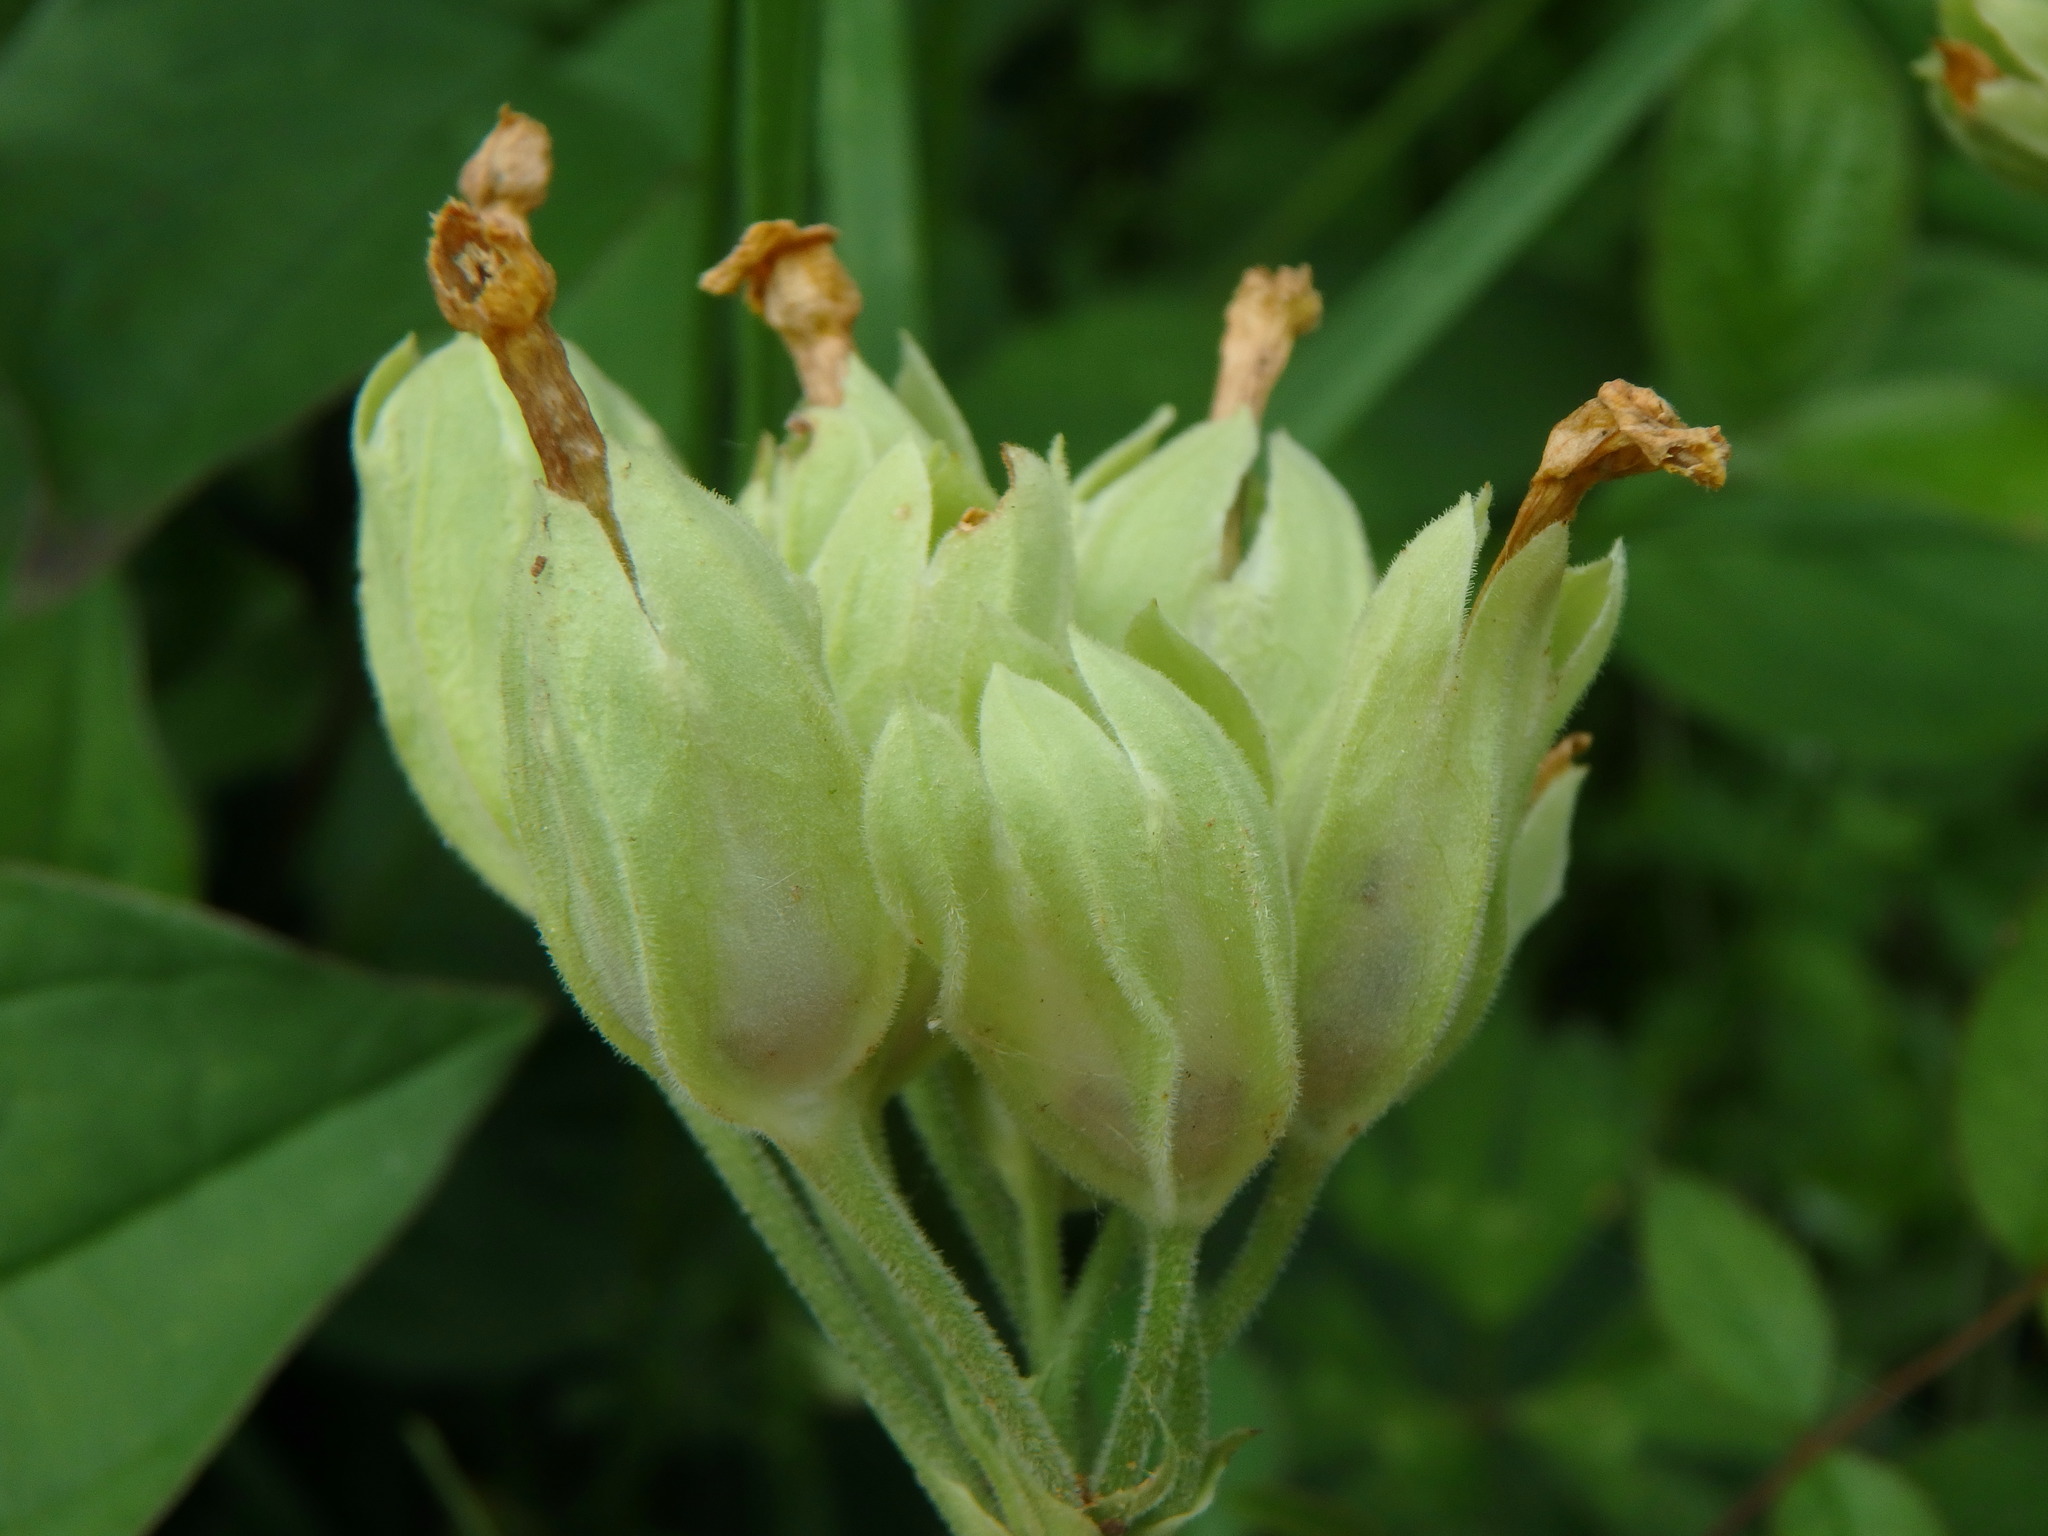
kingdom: Plantae
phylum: Tracheophyta
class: Magnoliopsida
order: Ericales
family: Primulaceae
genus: Primula
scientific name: Primula veris
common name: Cowslip
